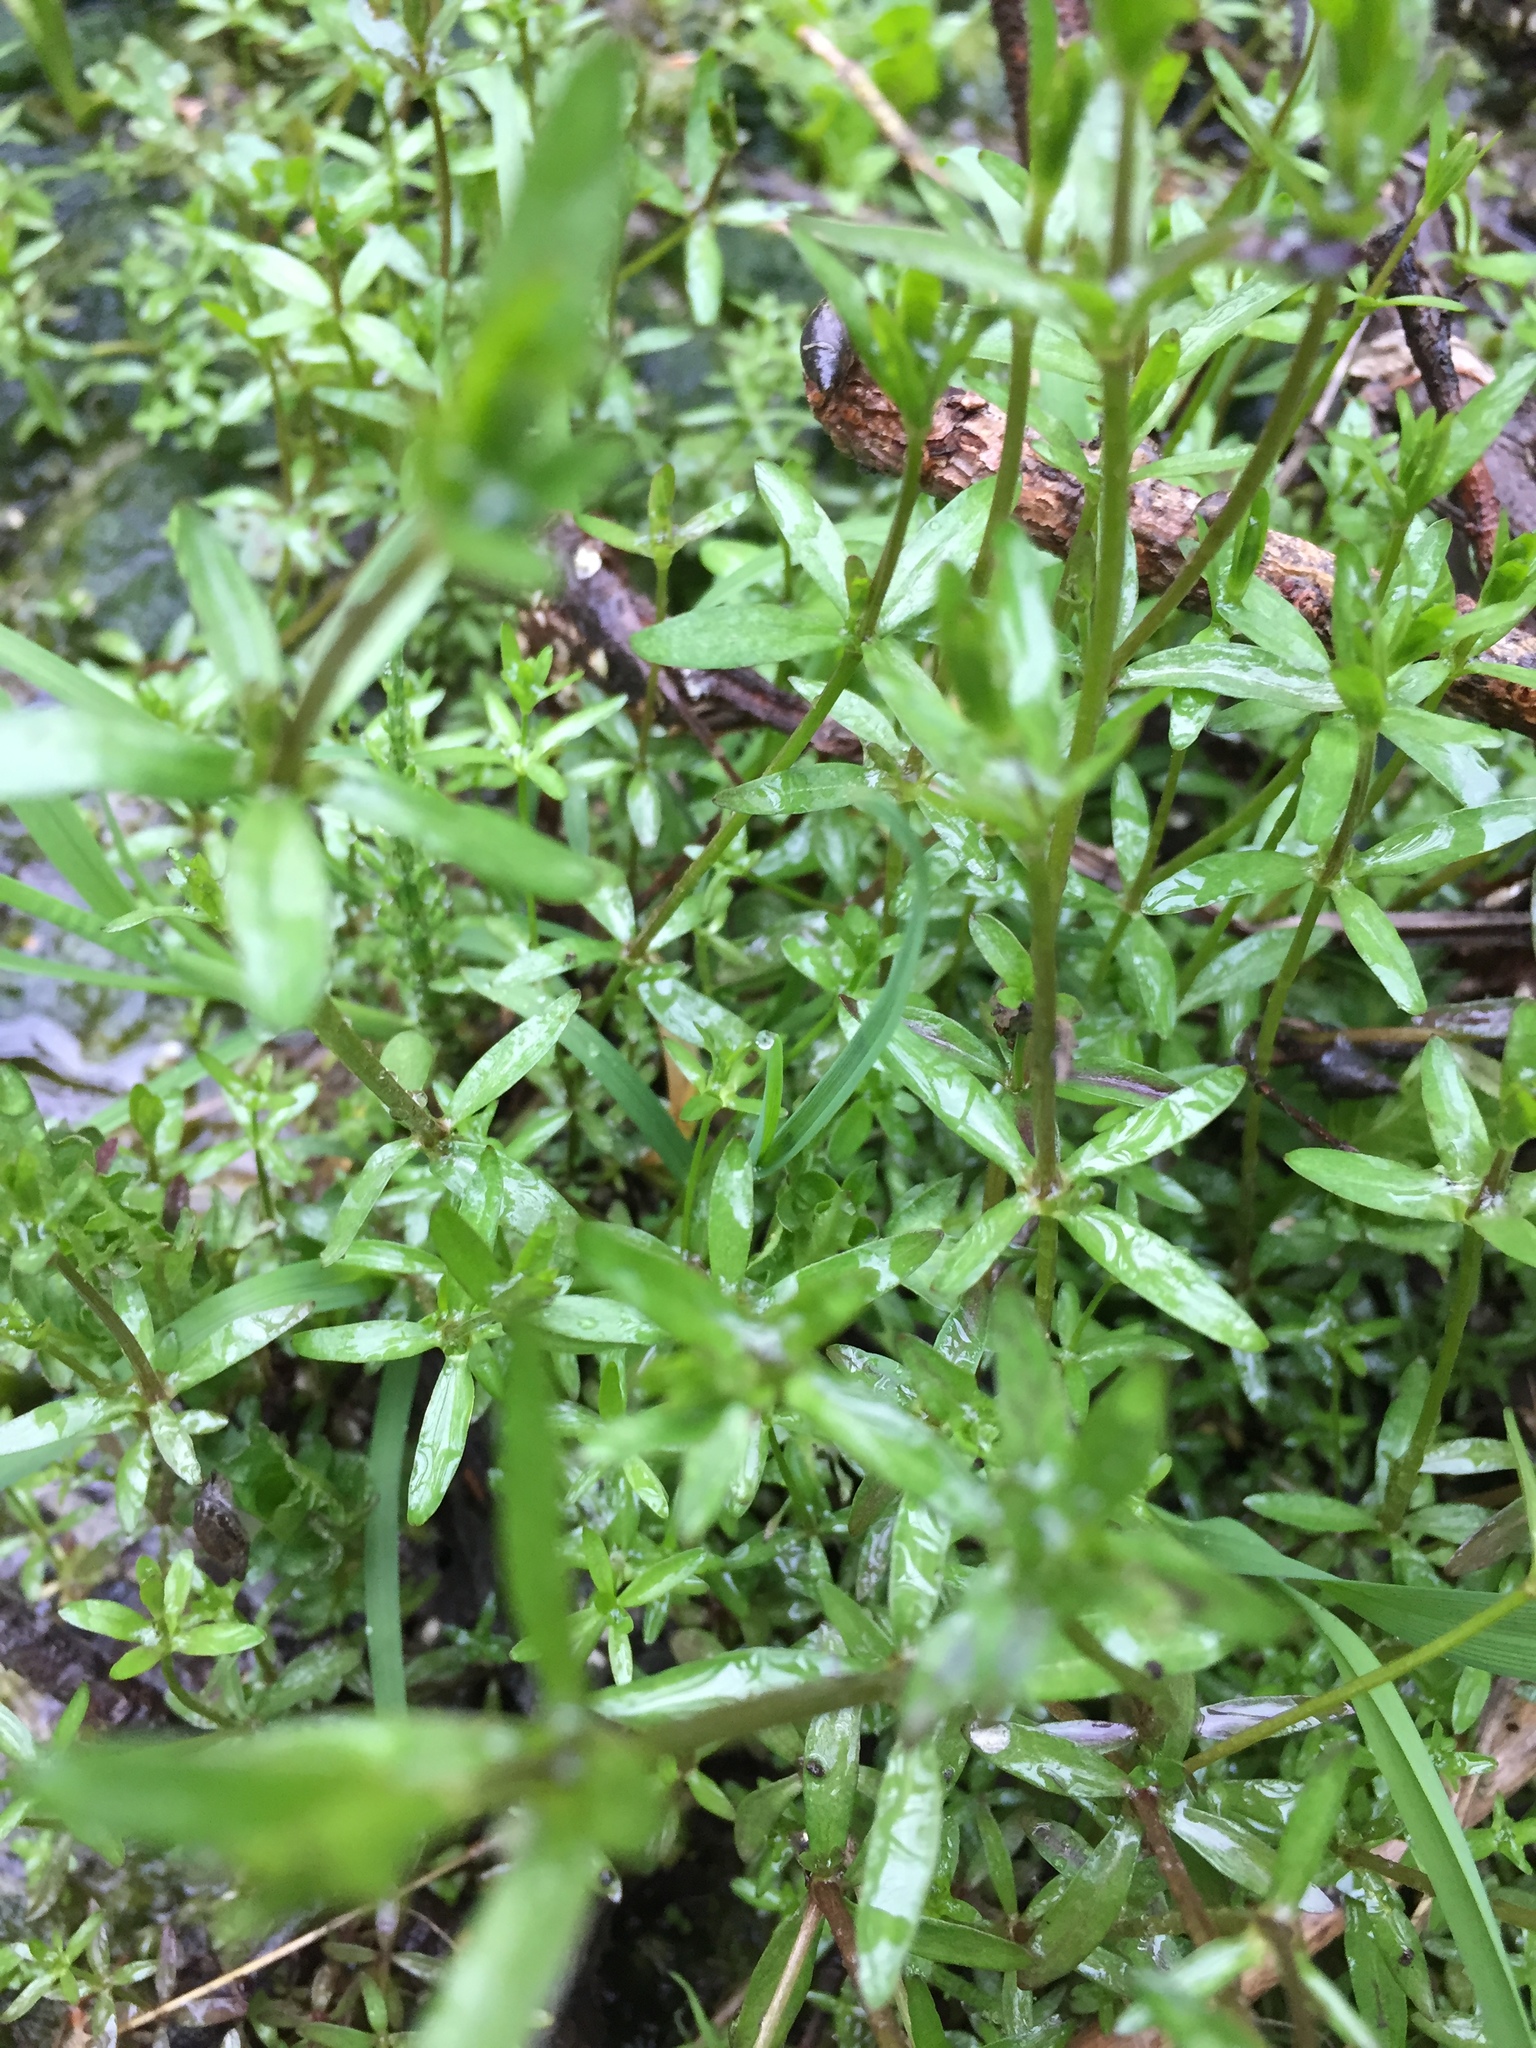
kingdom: Plantae
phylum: Tracheophyta
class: Magnoliopsida
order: Gentianales
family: Rubiaceae
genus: Galium
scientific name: Galium palustre
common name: Common marsh-bedstraw
